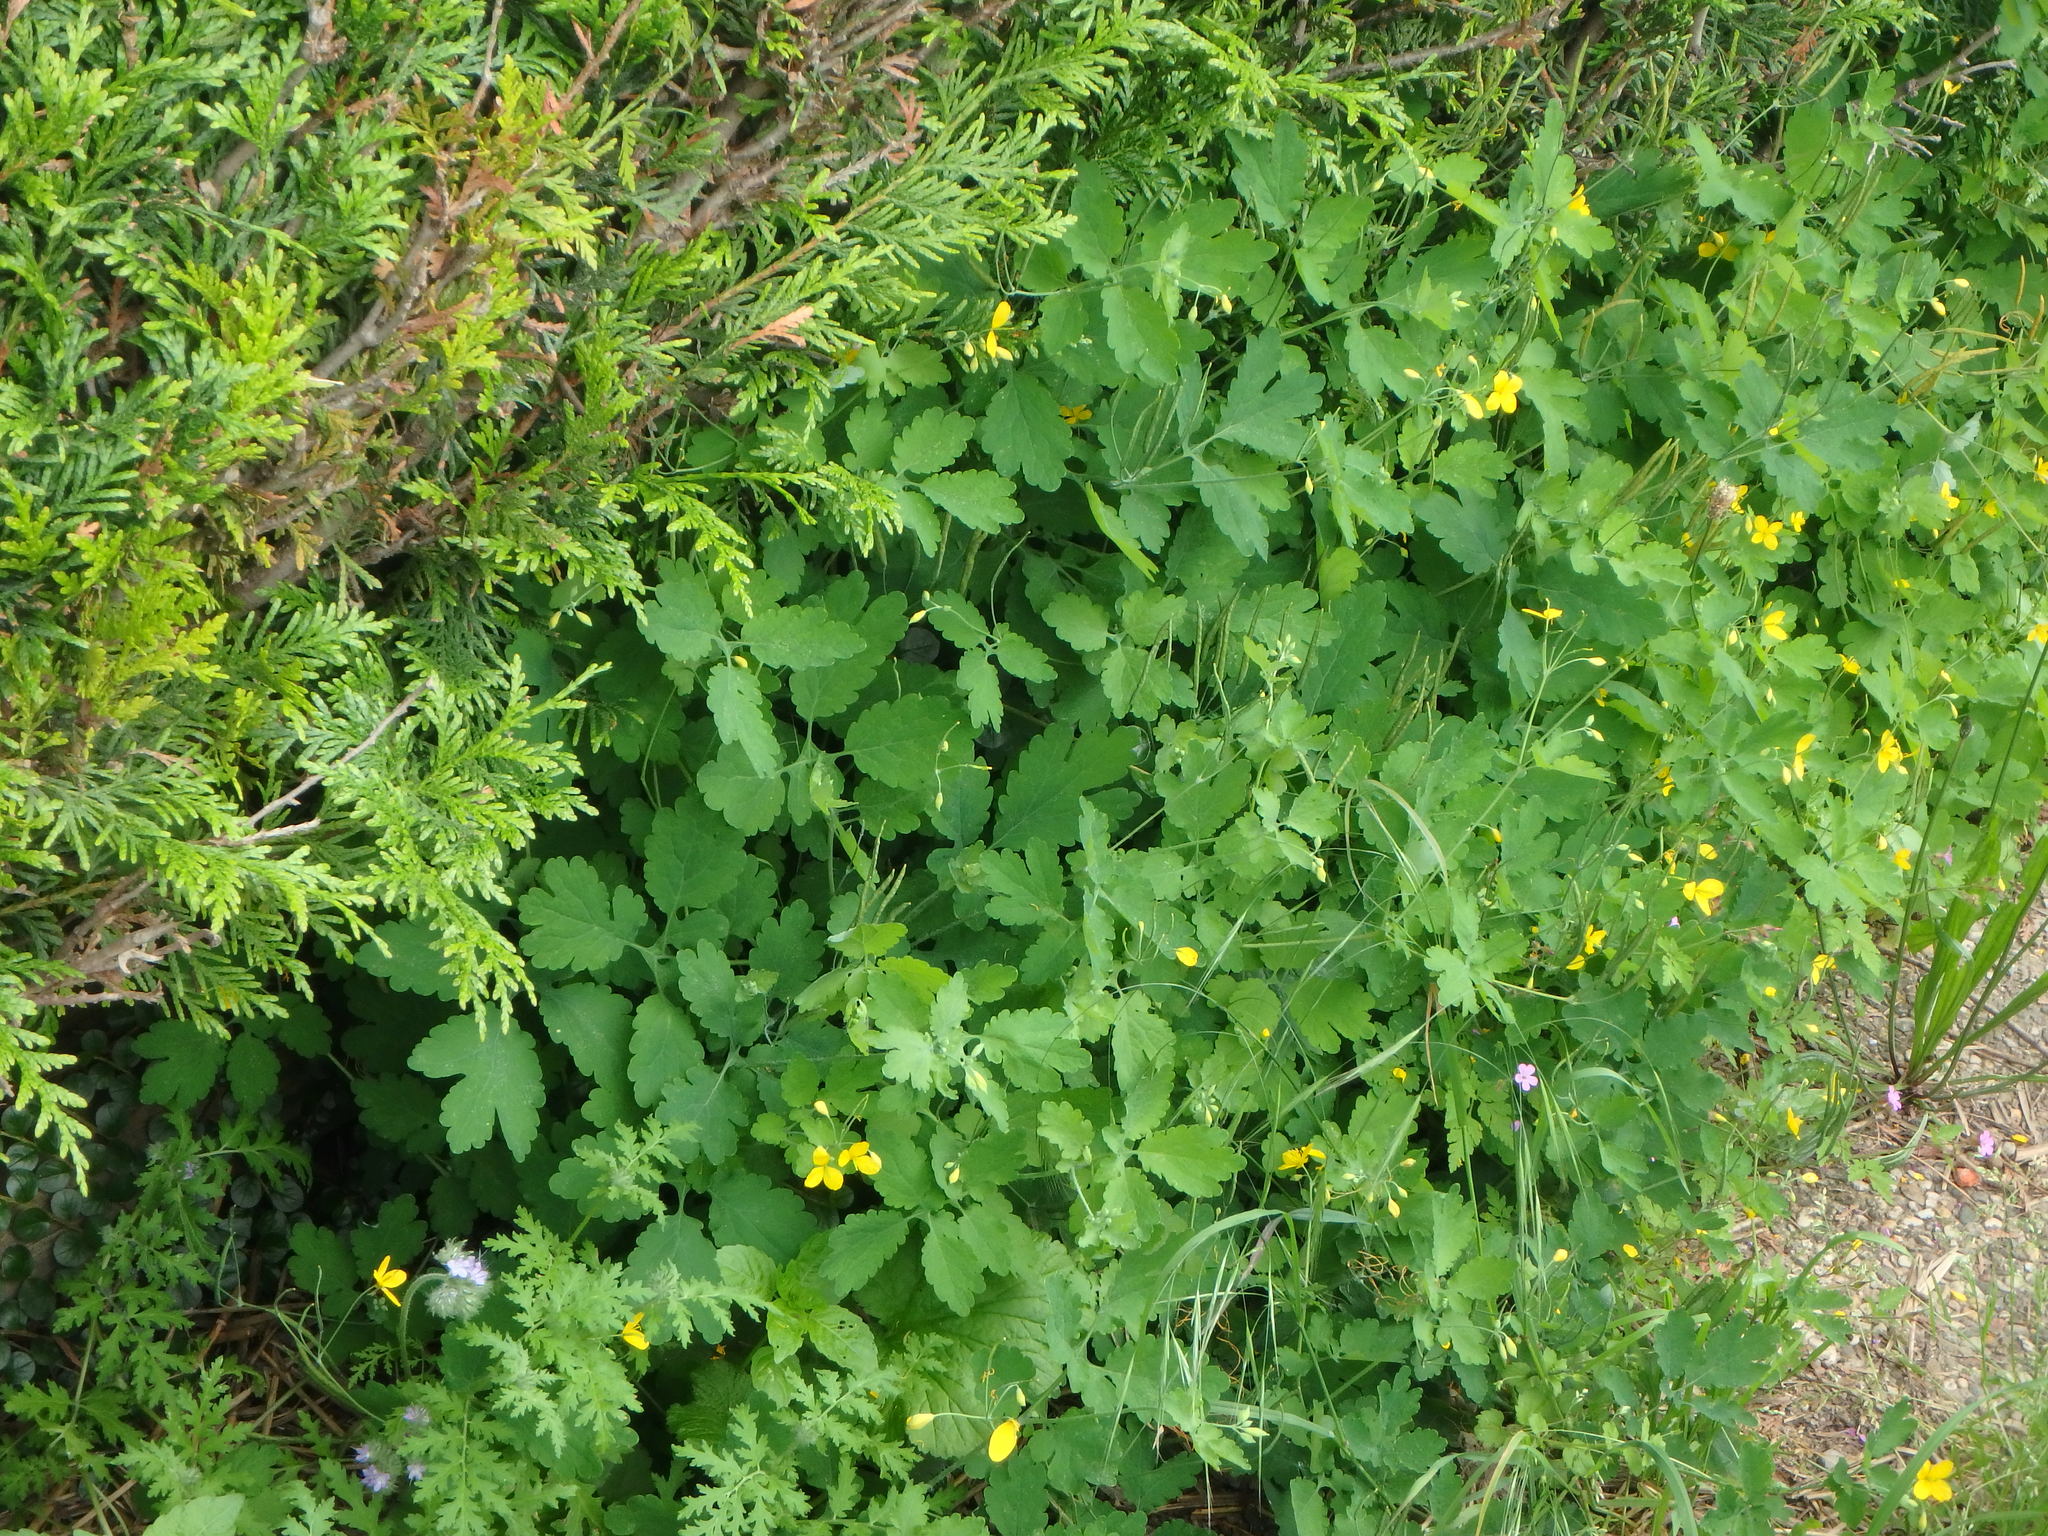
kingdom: Plantae
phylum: Tracheophyta
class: Magnoliopsida
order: Ranunculales
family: Papaveraceae
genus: Chelidonium
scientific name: Chelidonium majus
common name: Greater celandine
